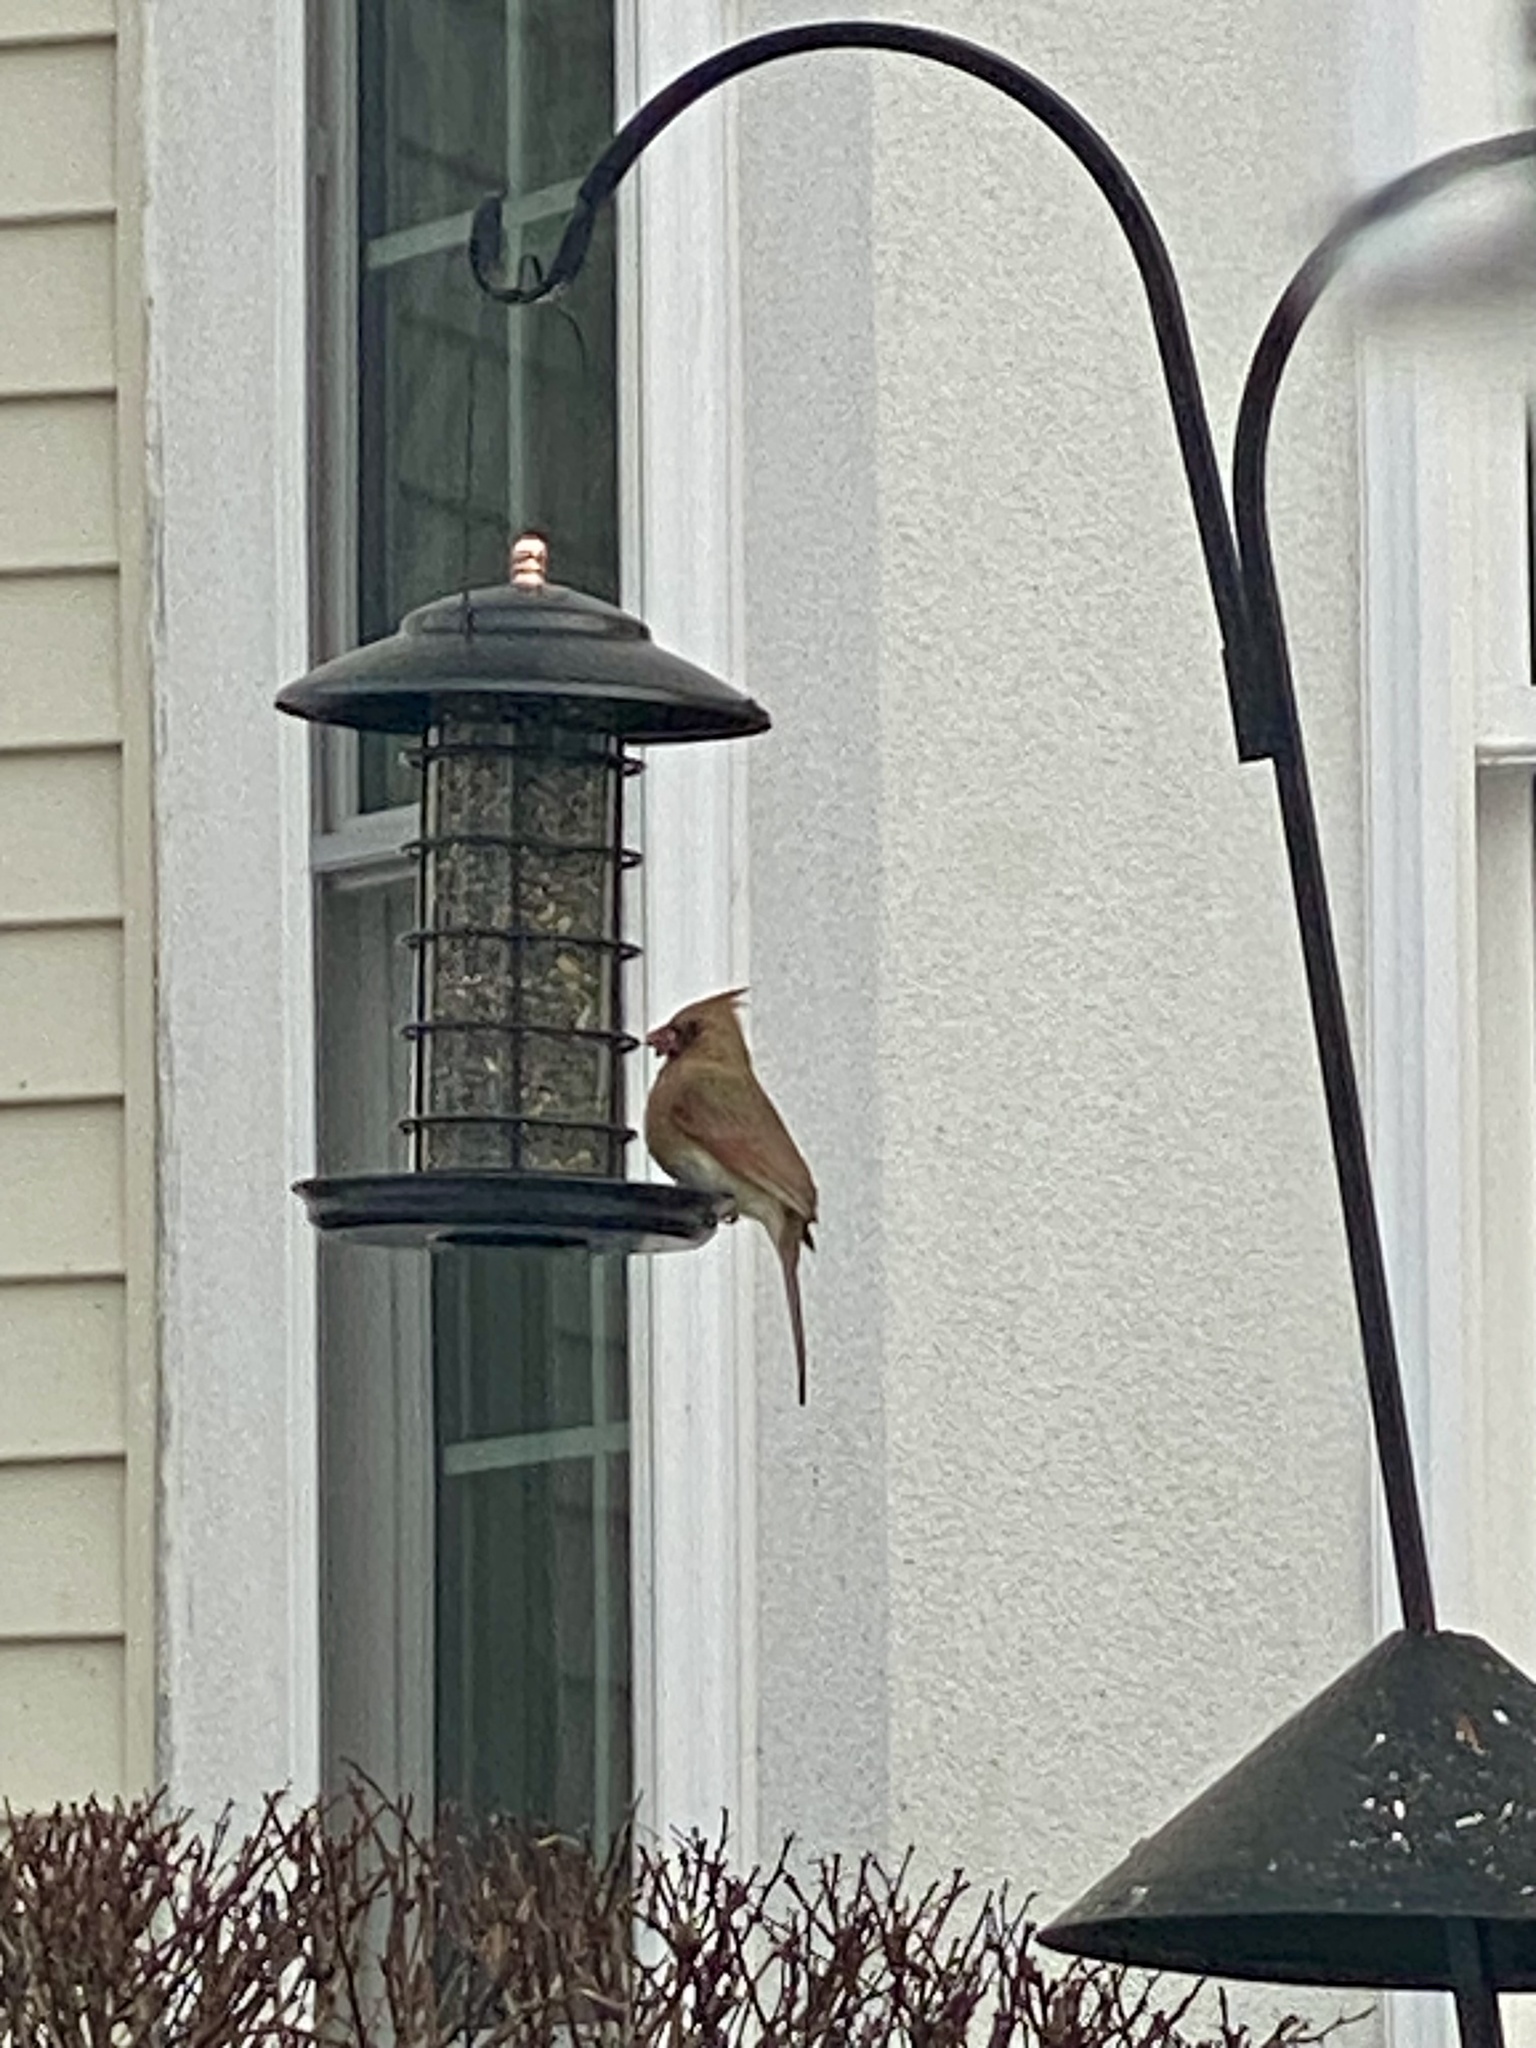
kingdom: Animalia
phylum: Chordata
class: Aves
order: Passeriformes
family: Cardinalidae
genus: Cardinalis
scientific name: Cardinalis cardinalis
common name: Northern cardinal
